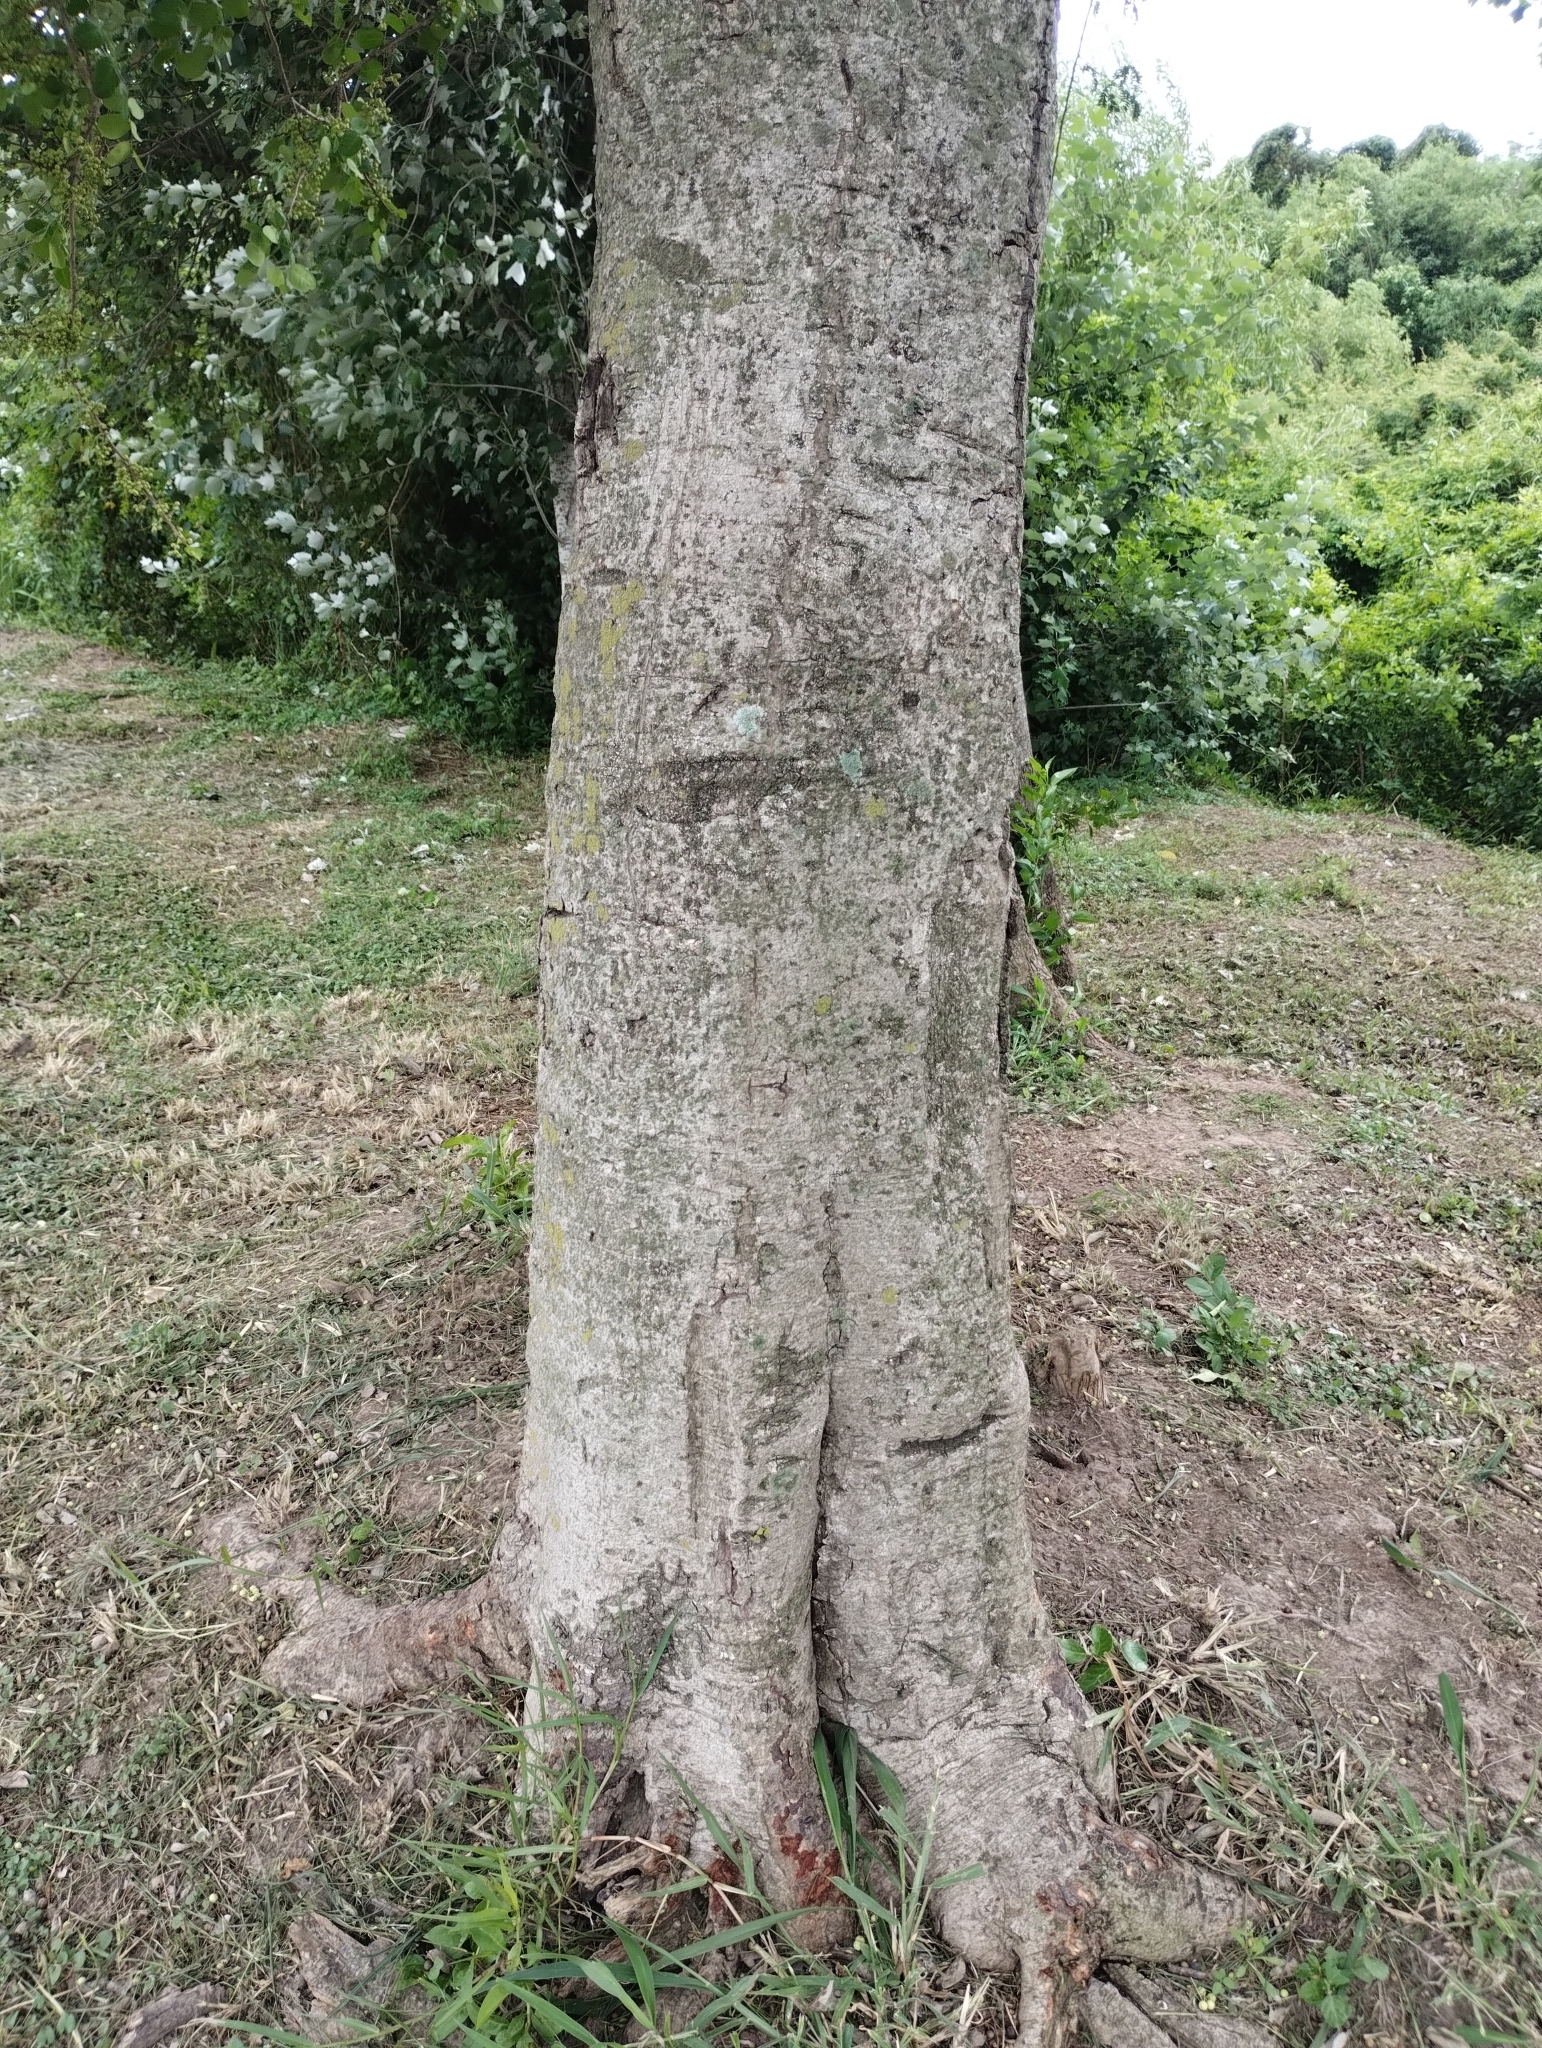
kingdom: Plantae
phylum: Tracheophyta
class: Magnoliopsida
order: Malpighiales
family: Phyllanthaceae
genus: Phyllanthus
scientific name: Phyllanthus chacoensis
